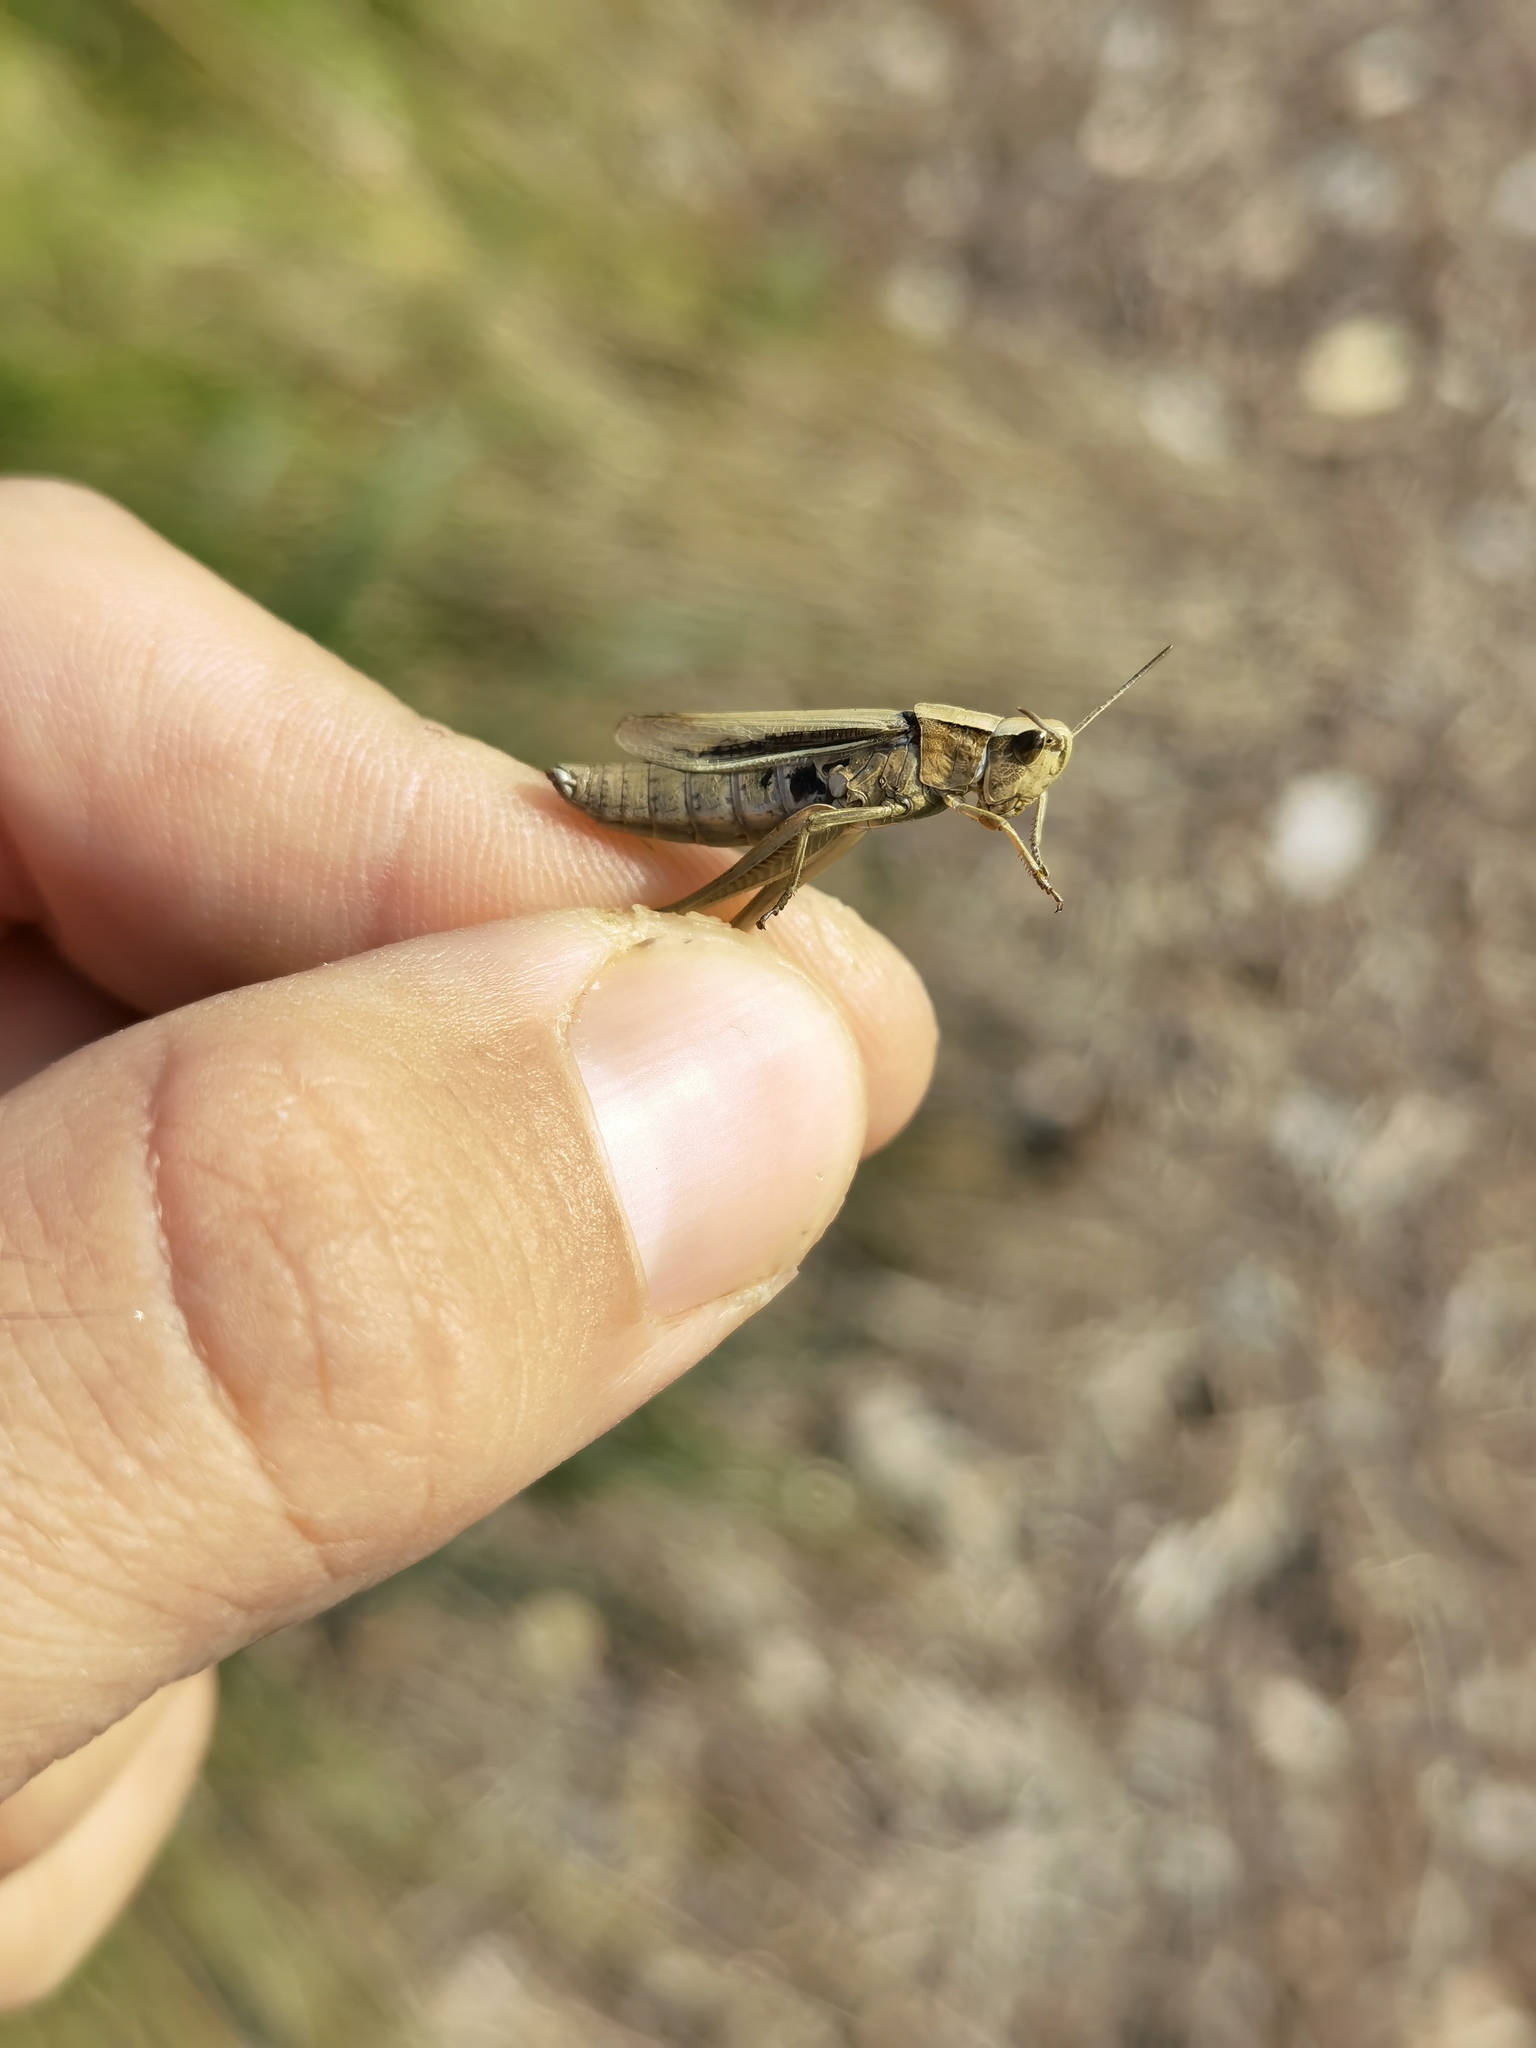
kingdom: Animalia
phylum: Arthropoda
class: Insecta
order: Orthoptera
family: Acrididae
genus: Chorthippus
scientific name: Chorthippus albomarginatus
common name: Lesser marsh grasshopper
